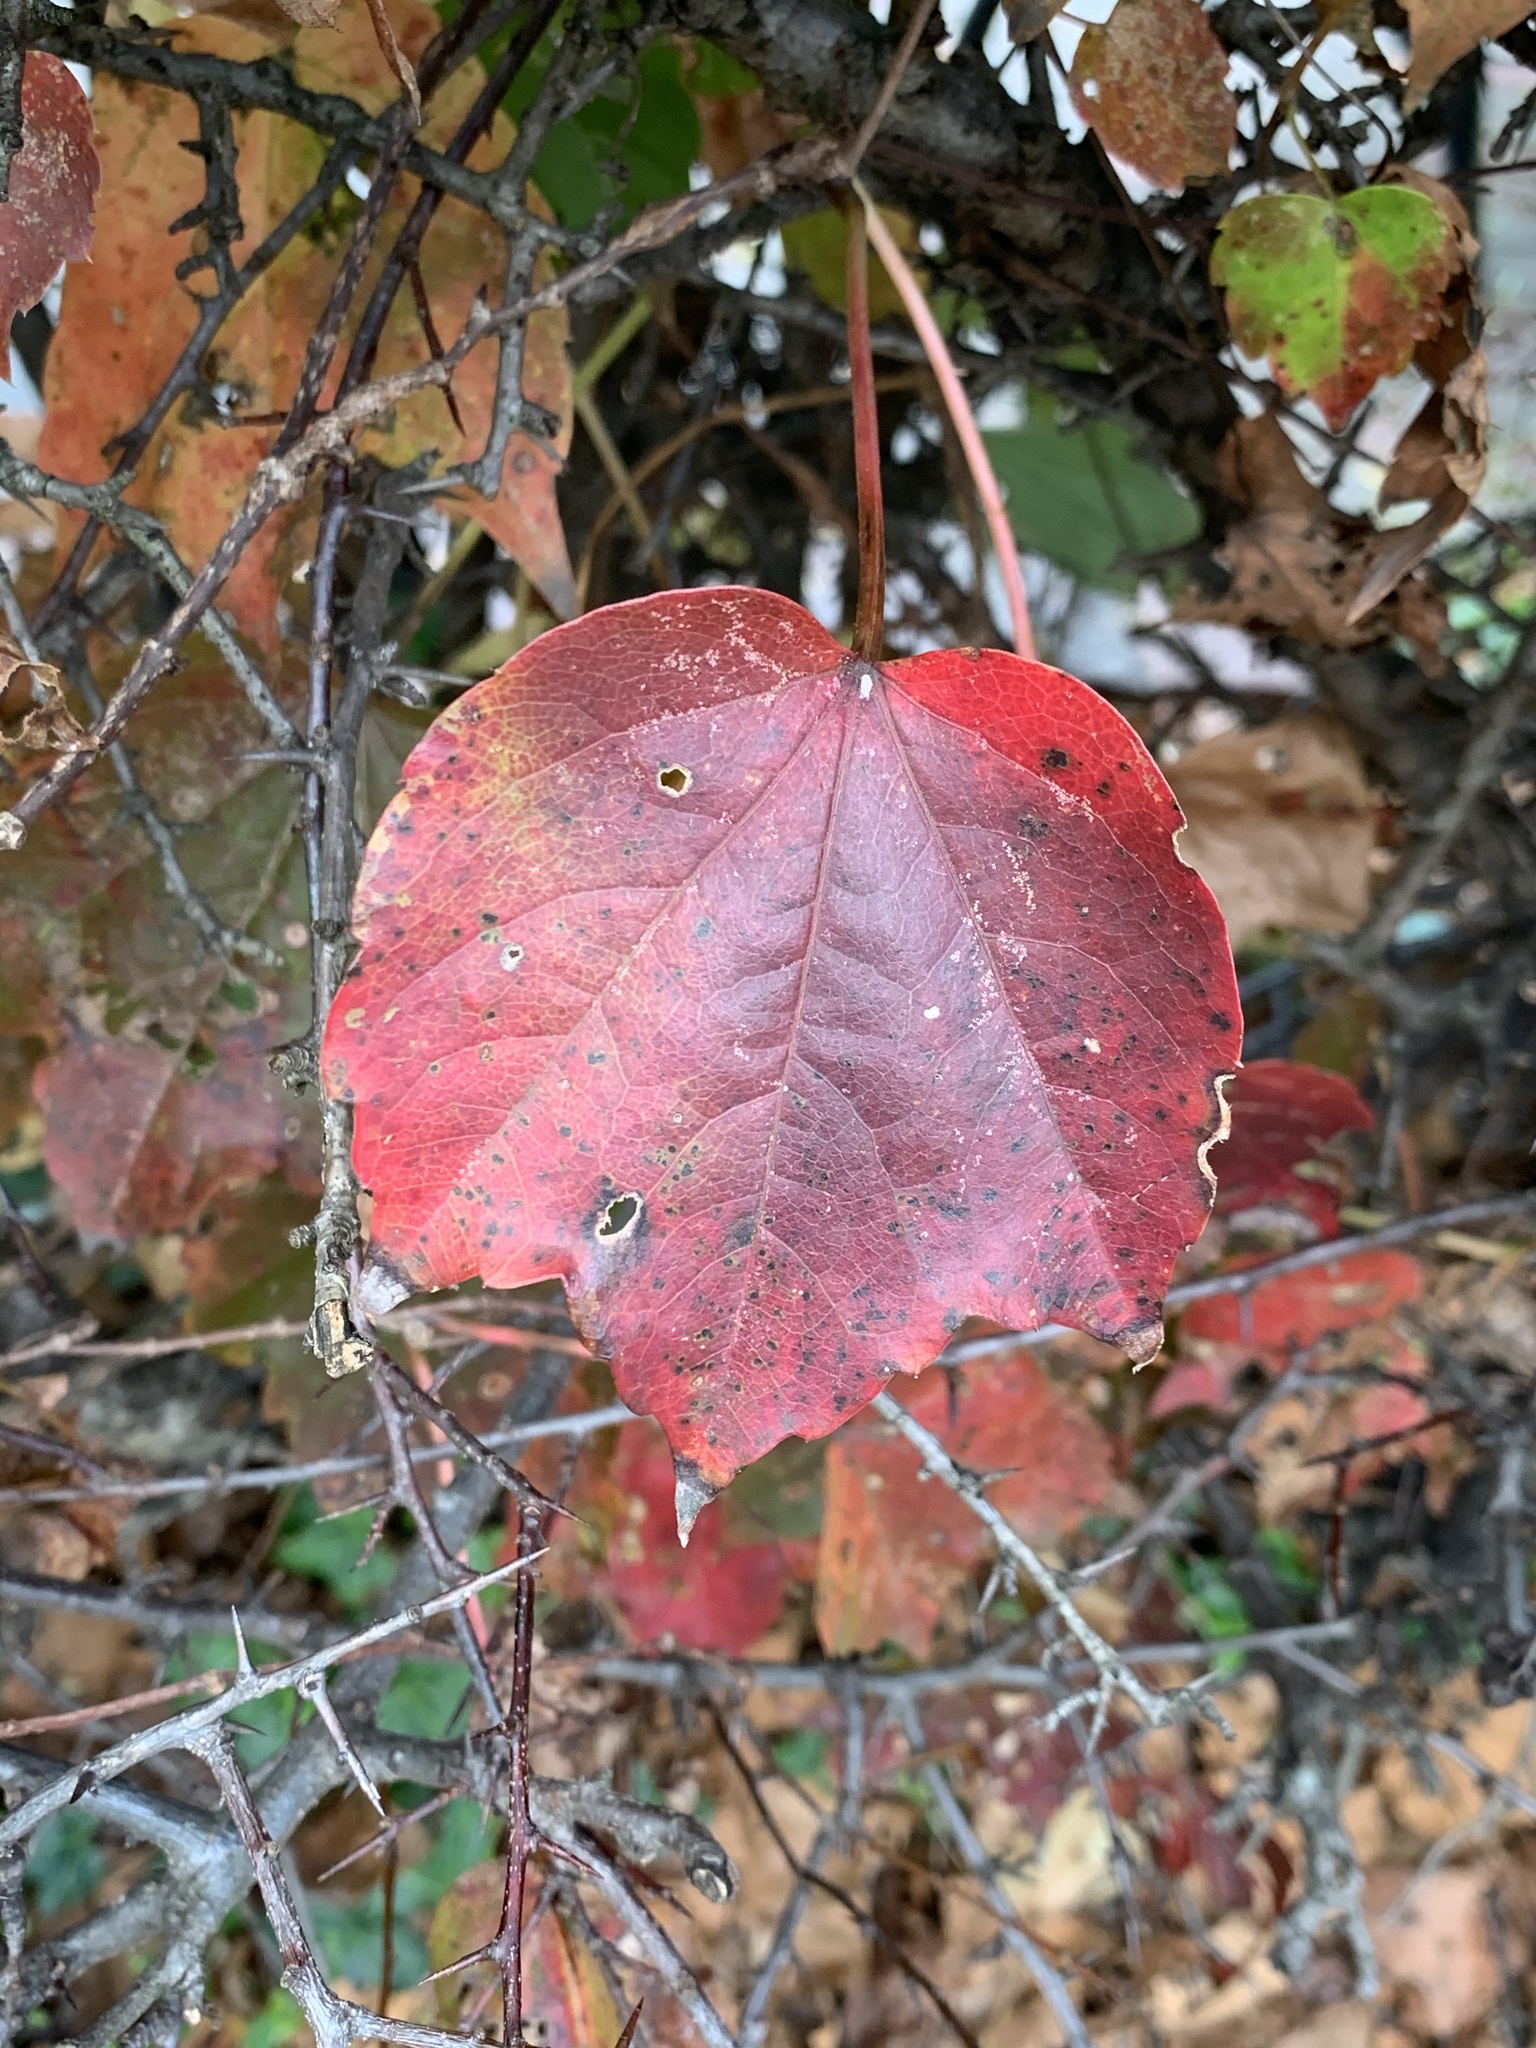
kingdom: Plantae
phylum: Tracheophyta
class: Magnoliopsida
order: Vitales
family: Vitaceae
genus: Parthenocissus
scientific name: Parthenocissus tricuspidata
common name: Boston ivy
